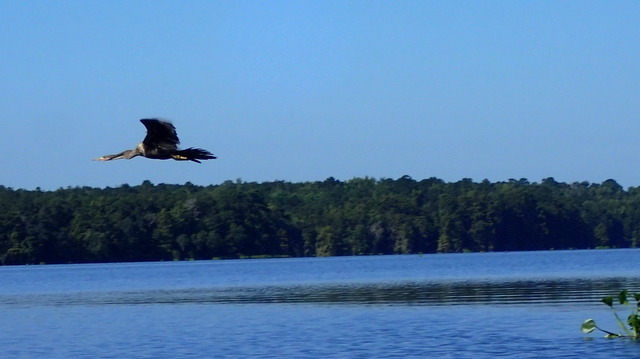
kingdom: Animalia
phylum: Chordata
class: Aves
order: Suliformes
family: Anhingidae
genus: Anhinga
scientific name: Anhinga anhinga
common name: Anhinga
